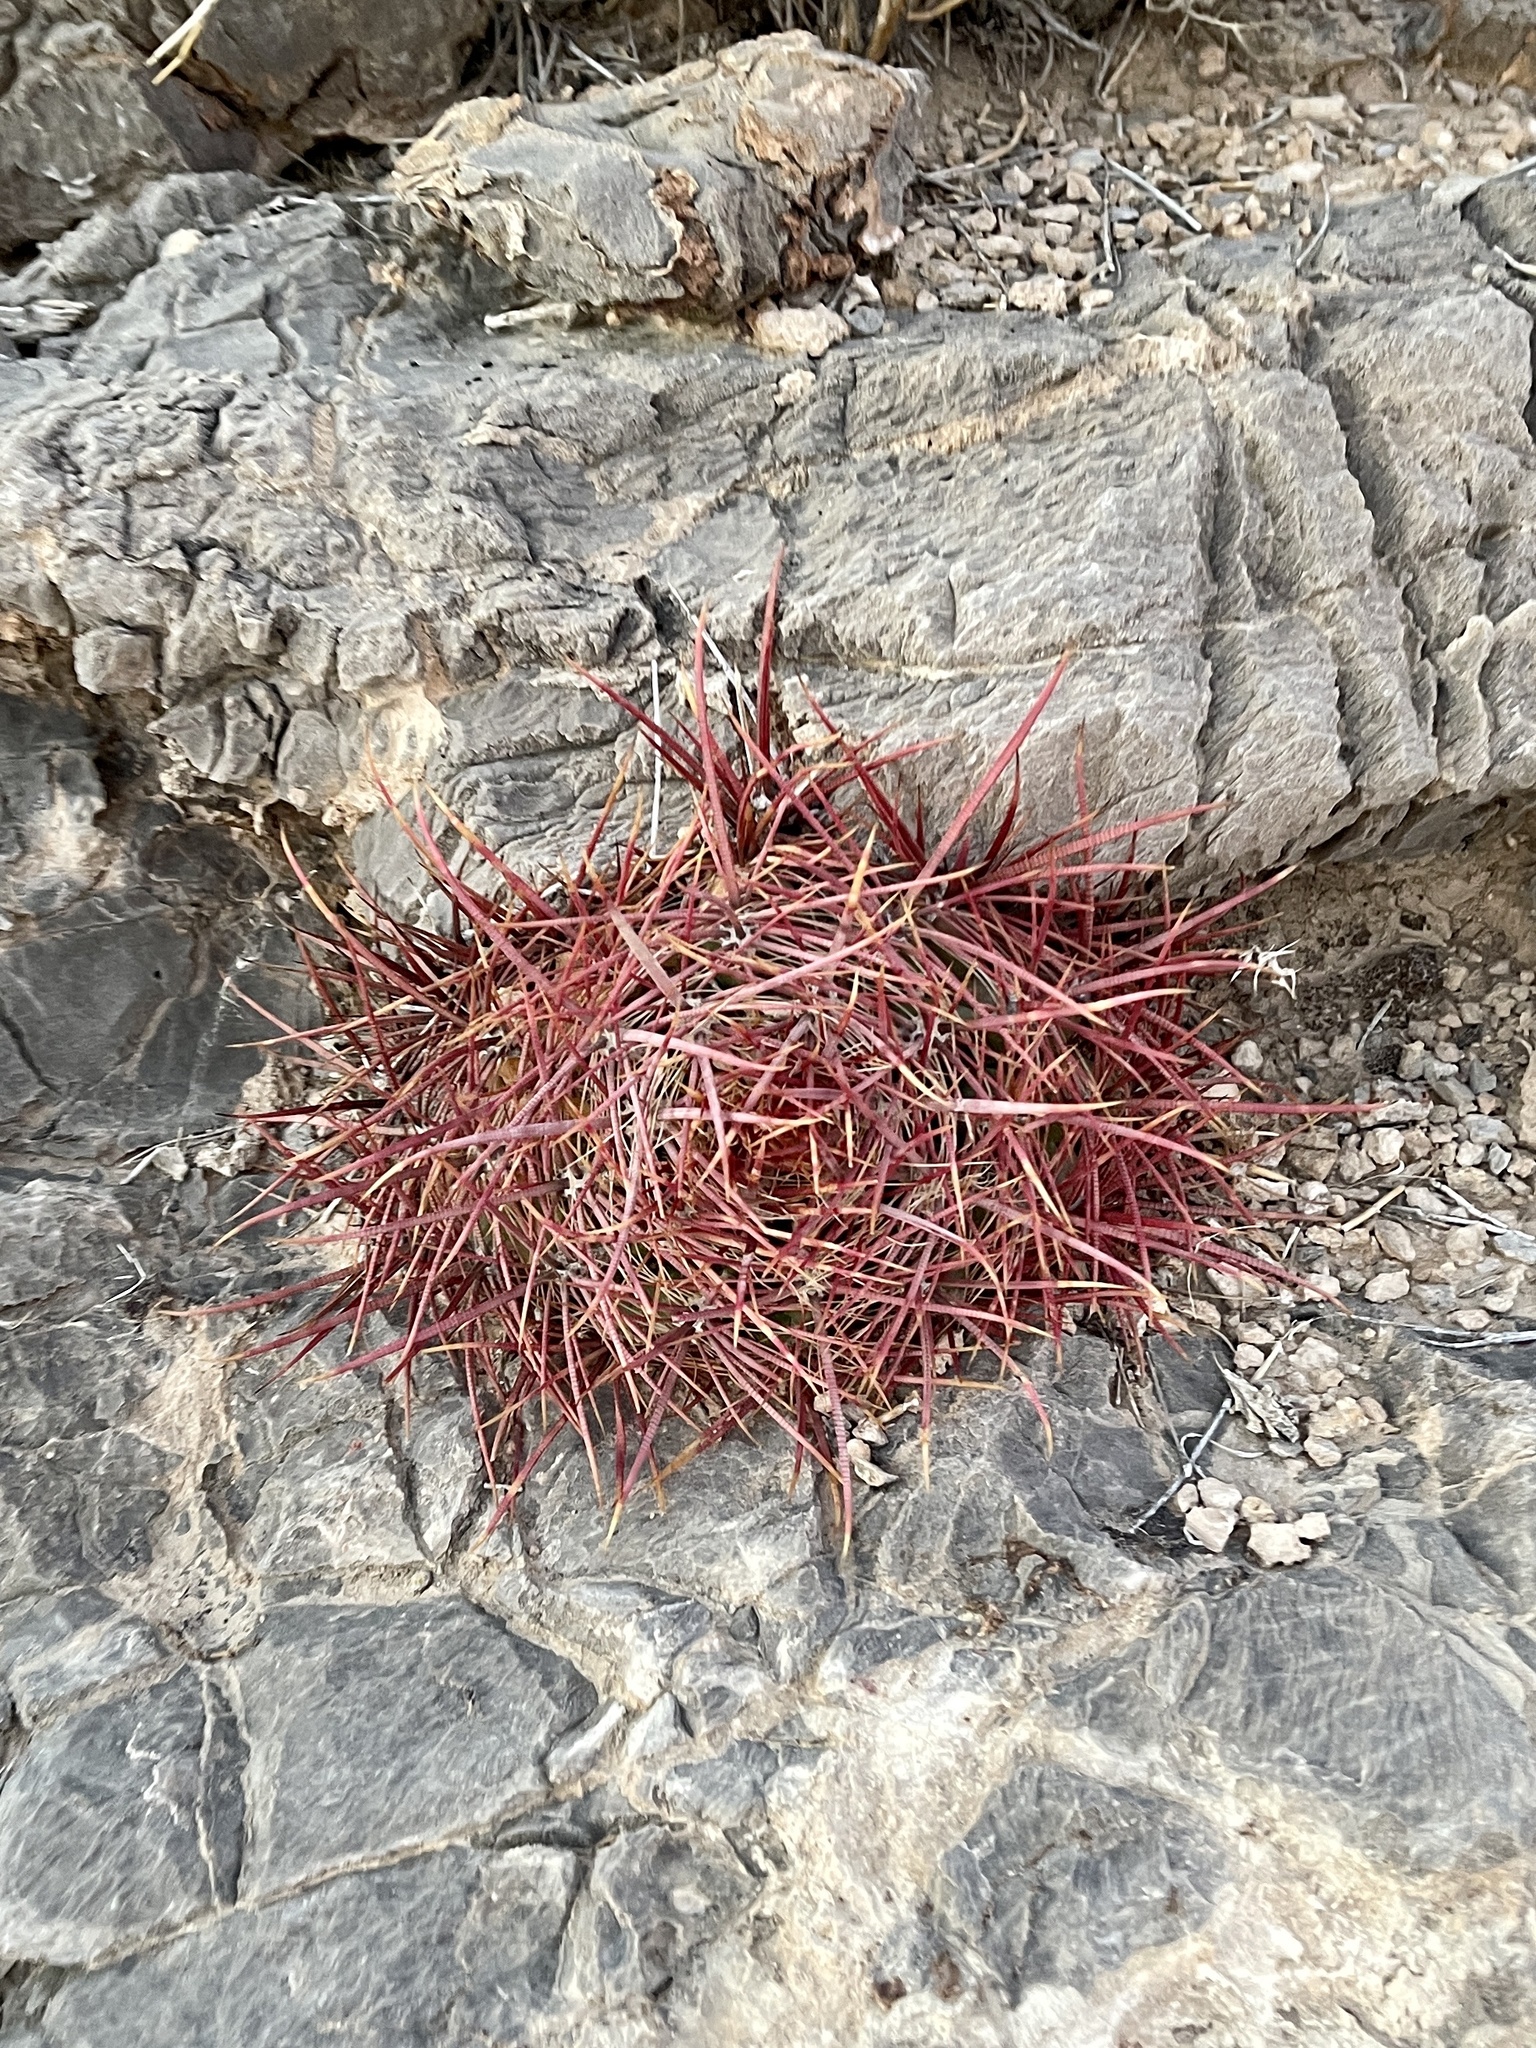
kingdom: Plantae
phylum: Tracheophyta
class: Magnoliopsida
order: Caryophyllales
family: Cactaceae
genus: Ferocactus
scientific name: Ferocactus cylindraceus
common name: California barrel cactus
